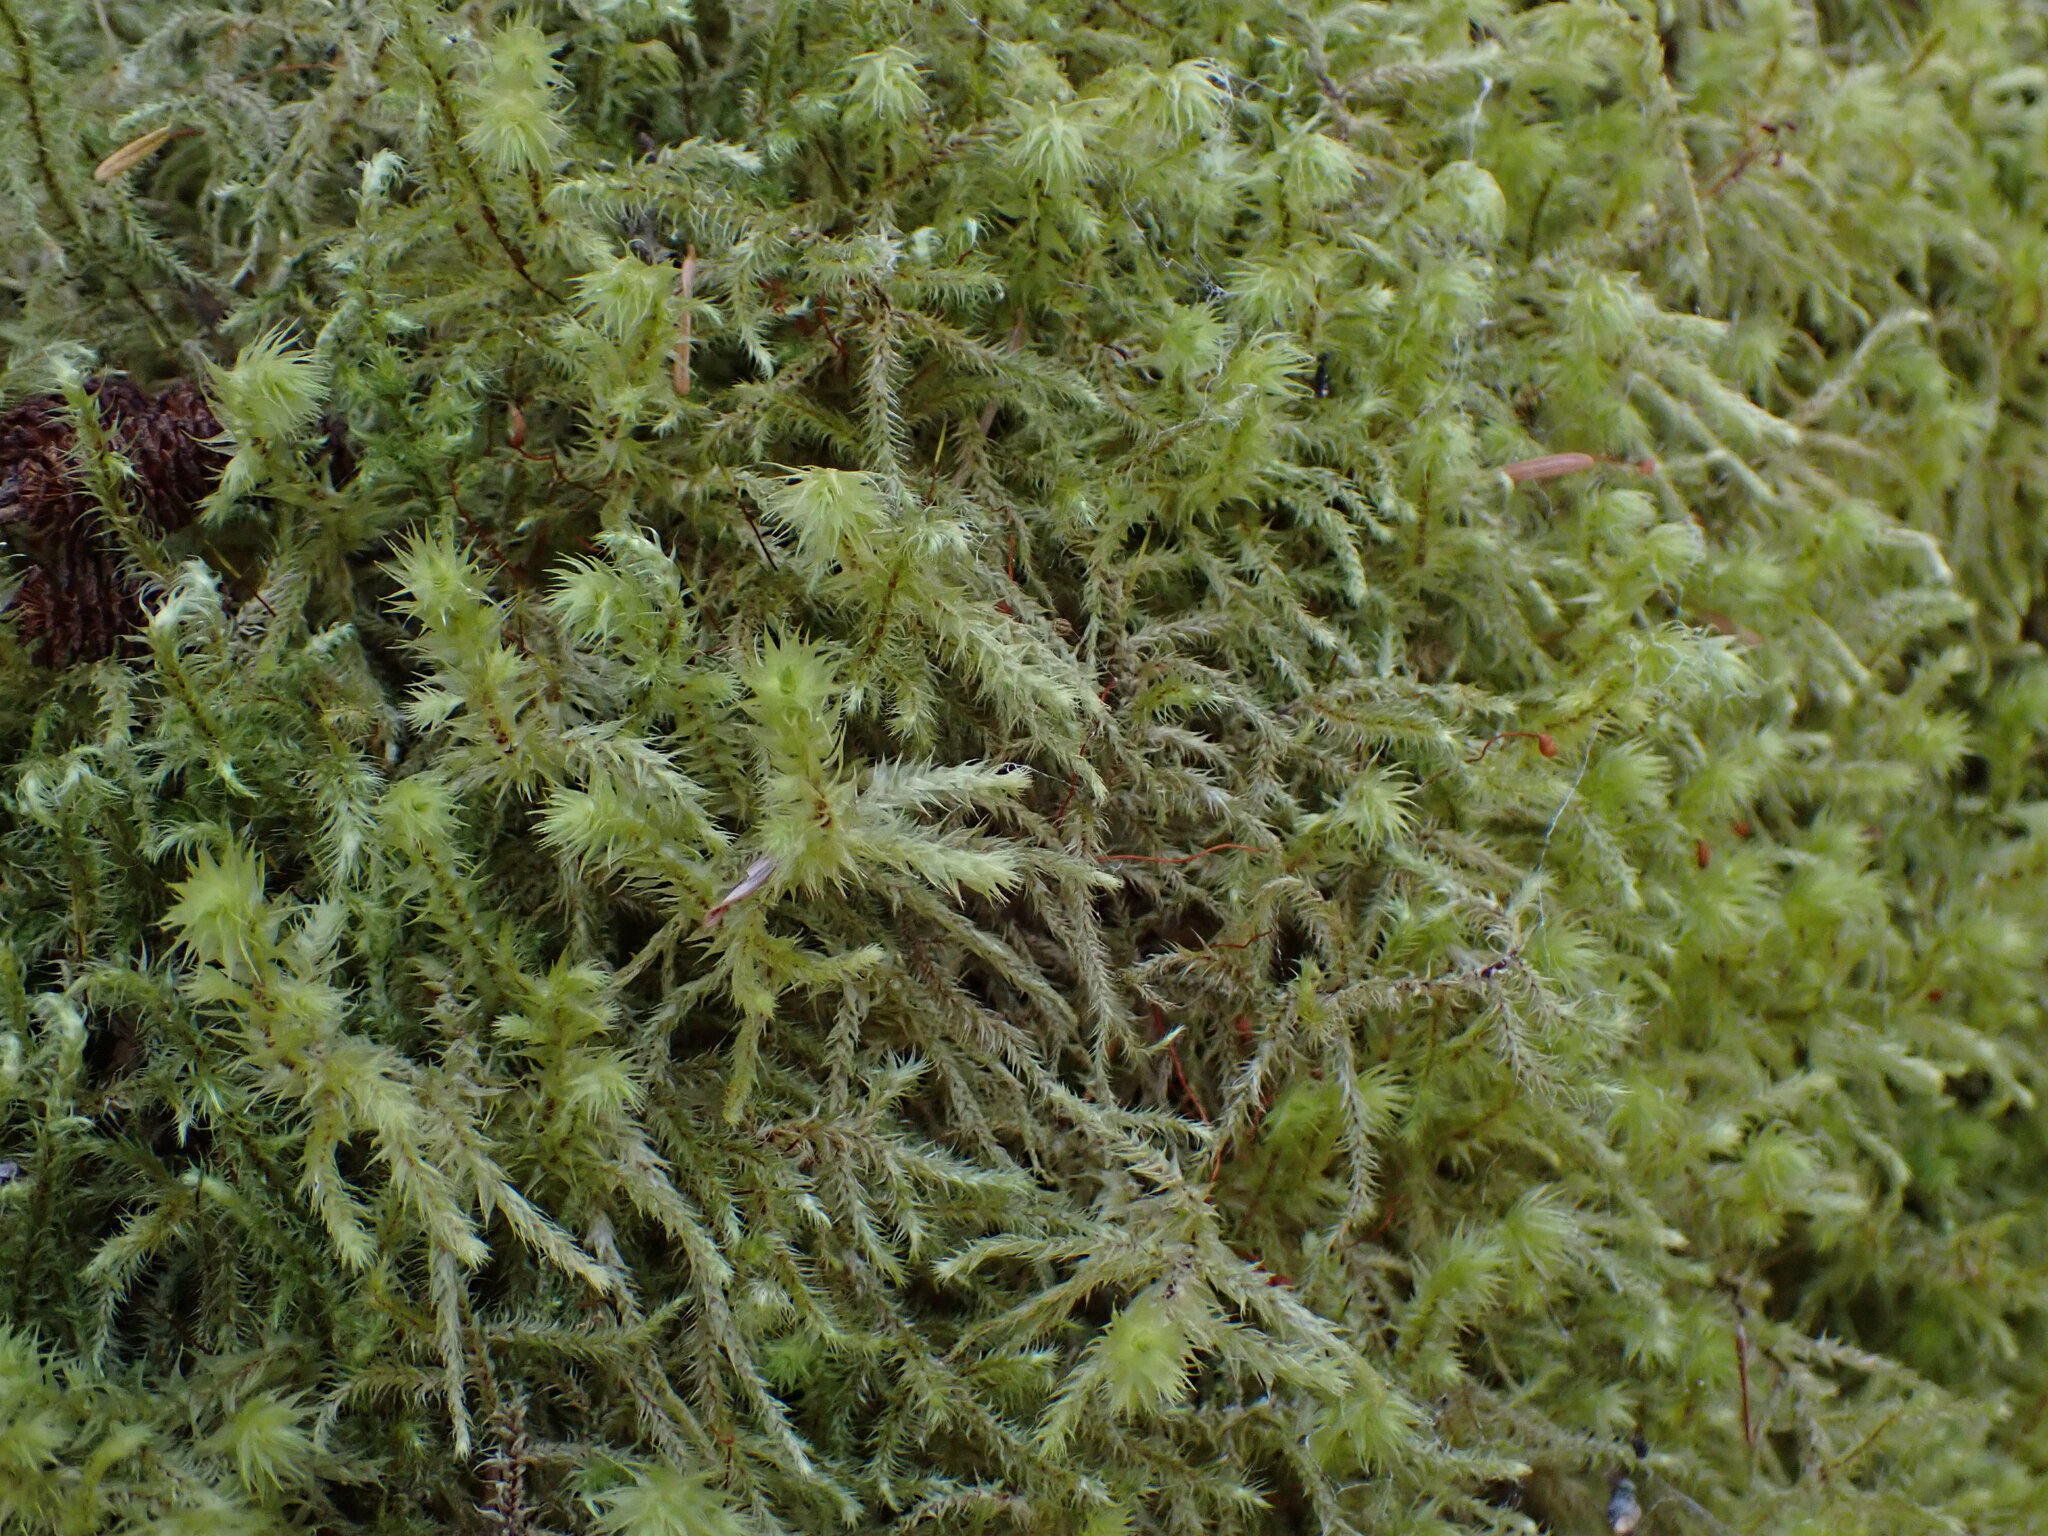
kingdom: Plantae
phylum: Bryophyta
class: Bryopsida
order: Hypnales
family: Hylocomiaceae
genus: Hylocomiadelphus
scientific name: Hylocomiadelphus triquetrus
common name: Rough goose neck moss
